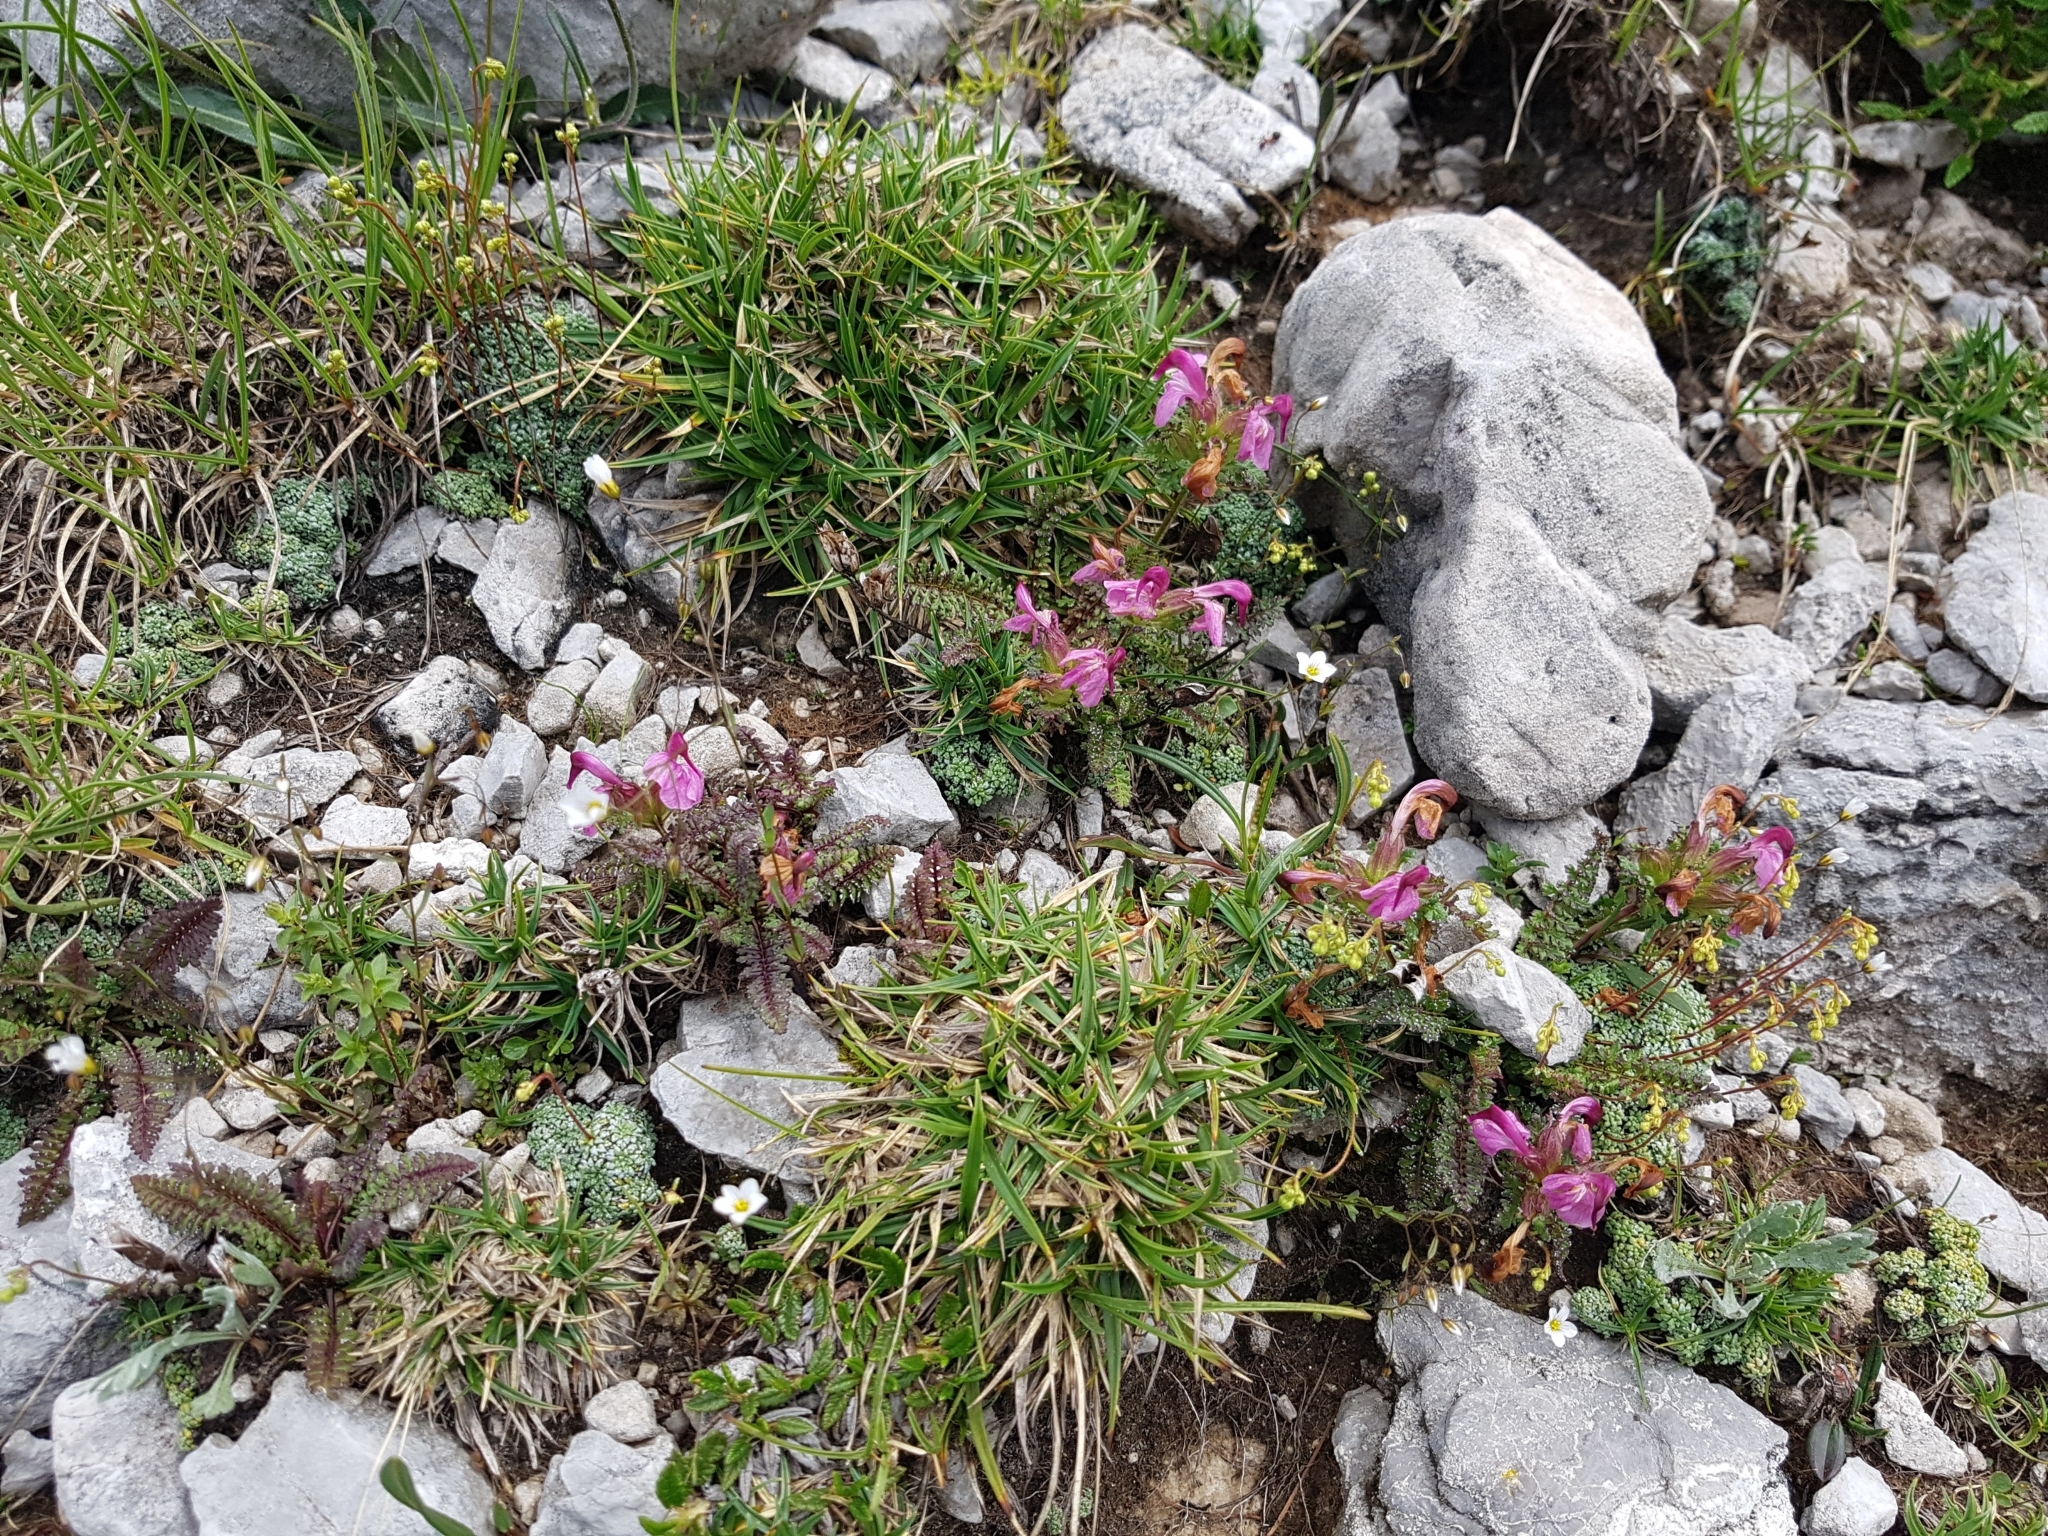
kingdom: Plantae
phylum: Tracheophyta
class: Magnoliopsida
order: Lamiales
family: Orobanchaceae
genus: Pedicularis
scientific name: Pedicularis rostratocapitata
